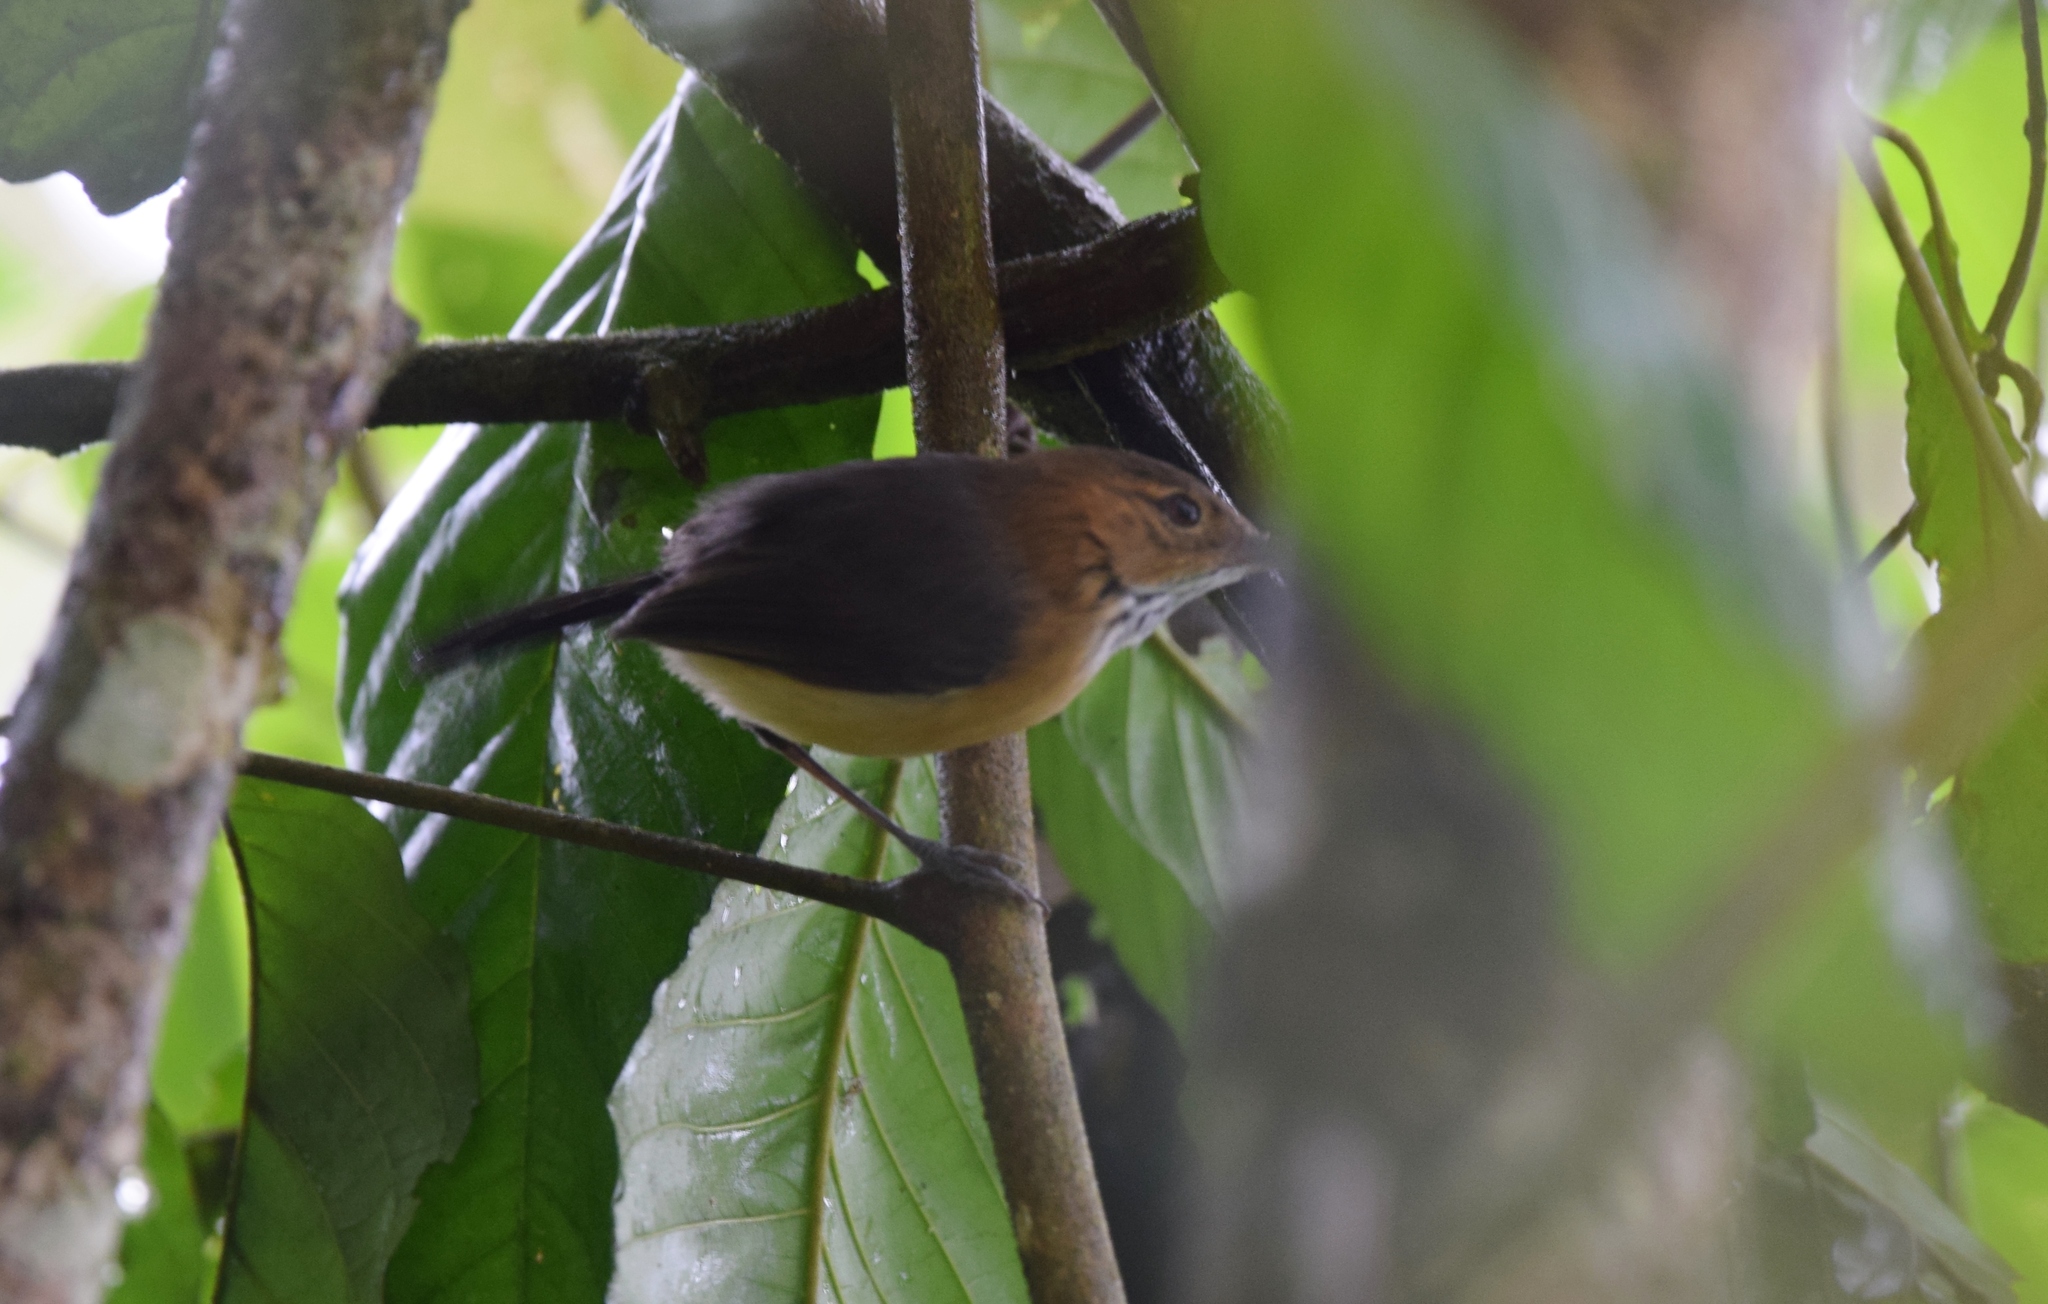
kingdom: Animalia
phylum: Chordata
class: Aves
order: Passeriformes
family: Polioptilidae
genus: Ramphocaenus
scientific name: Ramphocaenus melanurus
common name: Long-billed gnatwren
